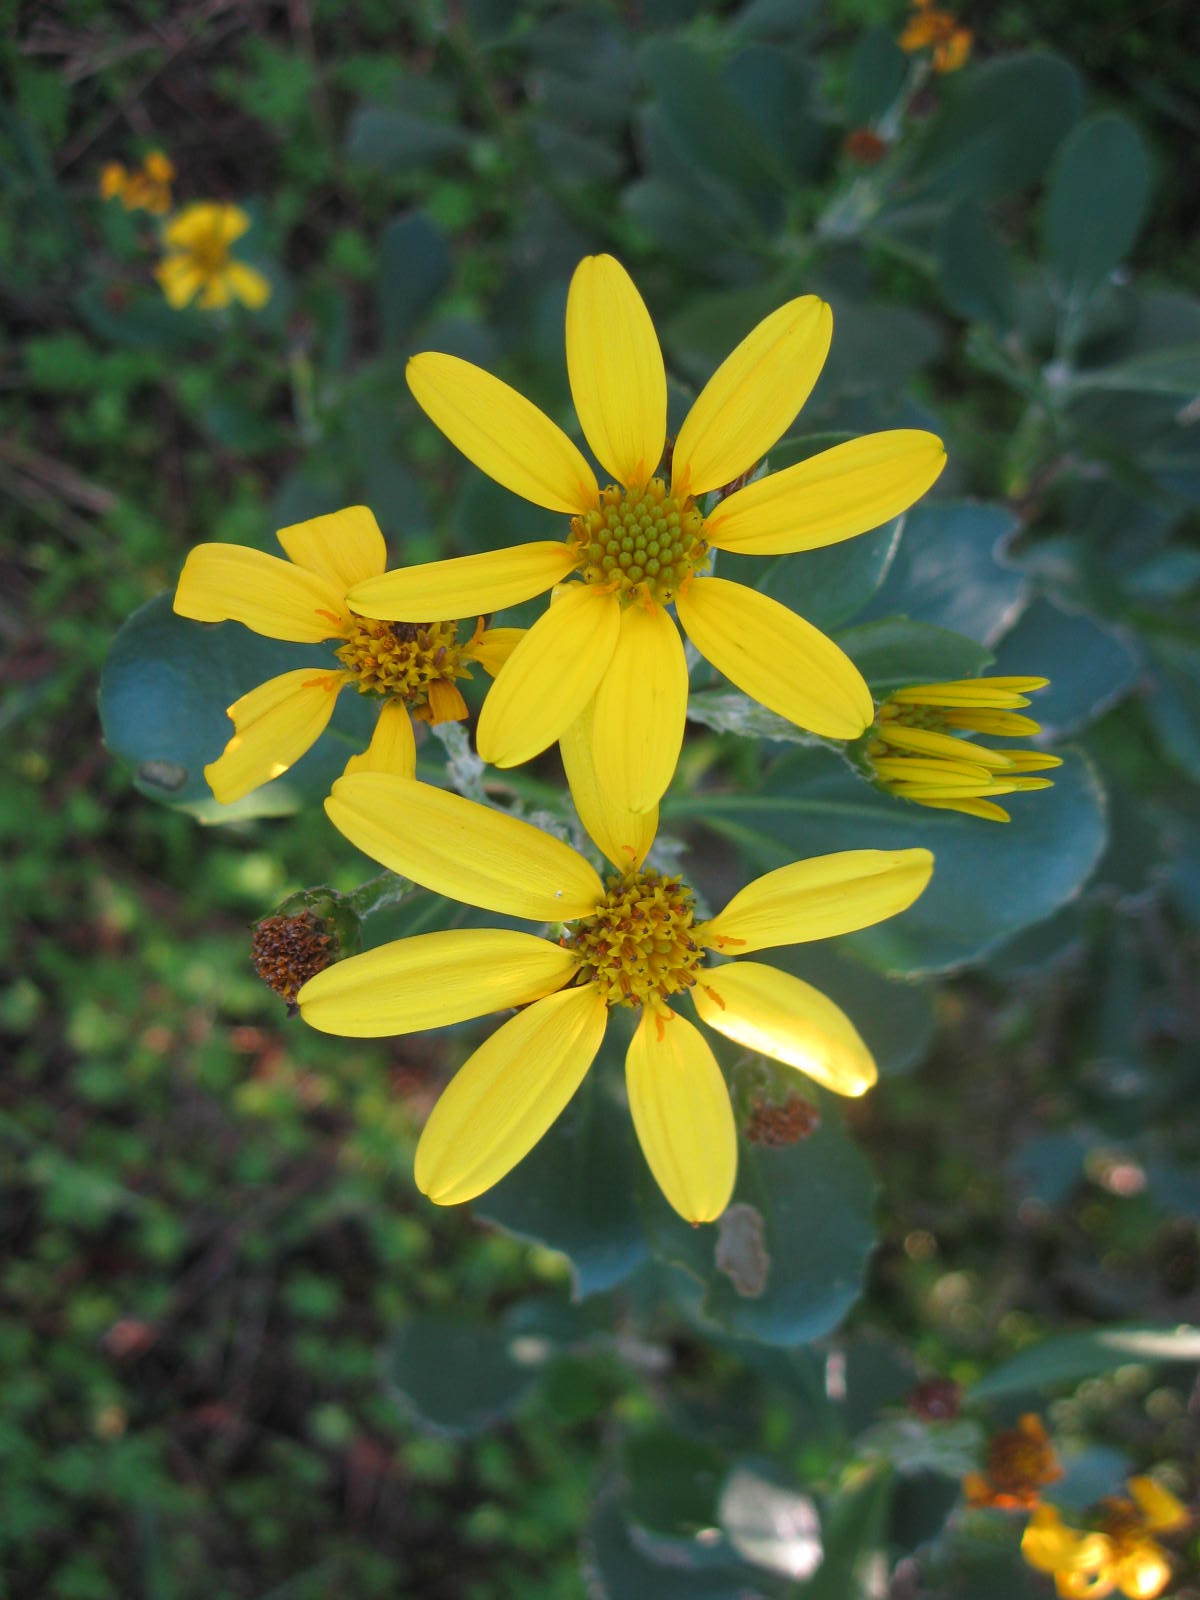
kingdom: Plantae
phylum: Tracheophyta
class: Magnoliopsida
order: Asterales
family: Asteraceae
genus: Osteospermum
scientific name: Osteospermum moniliferum
